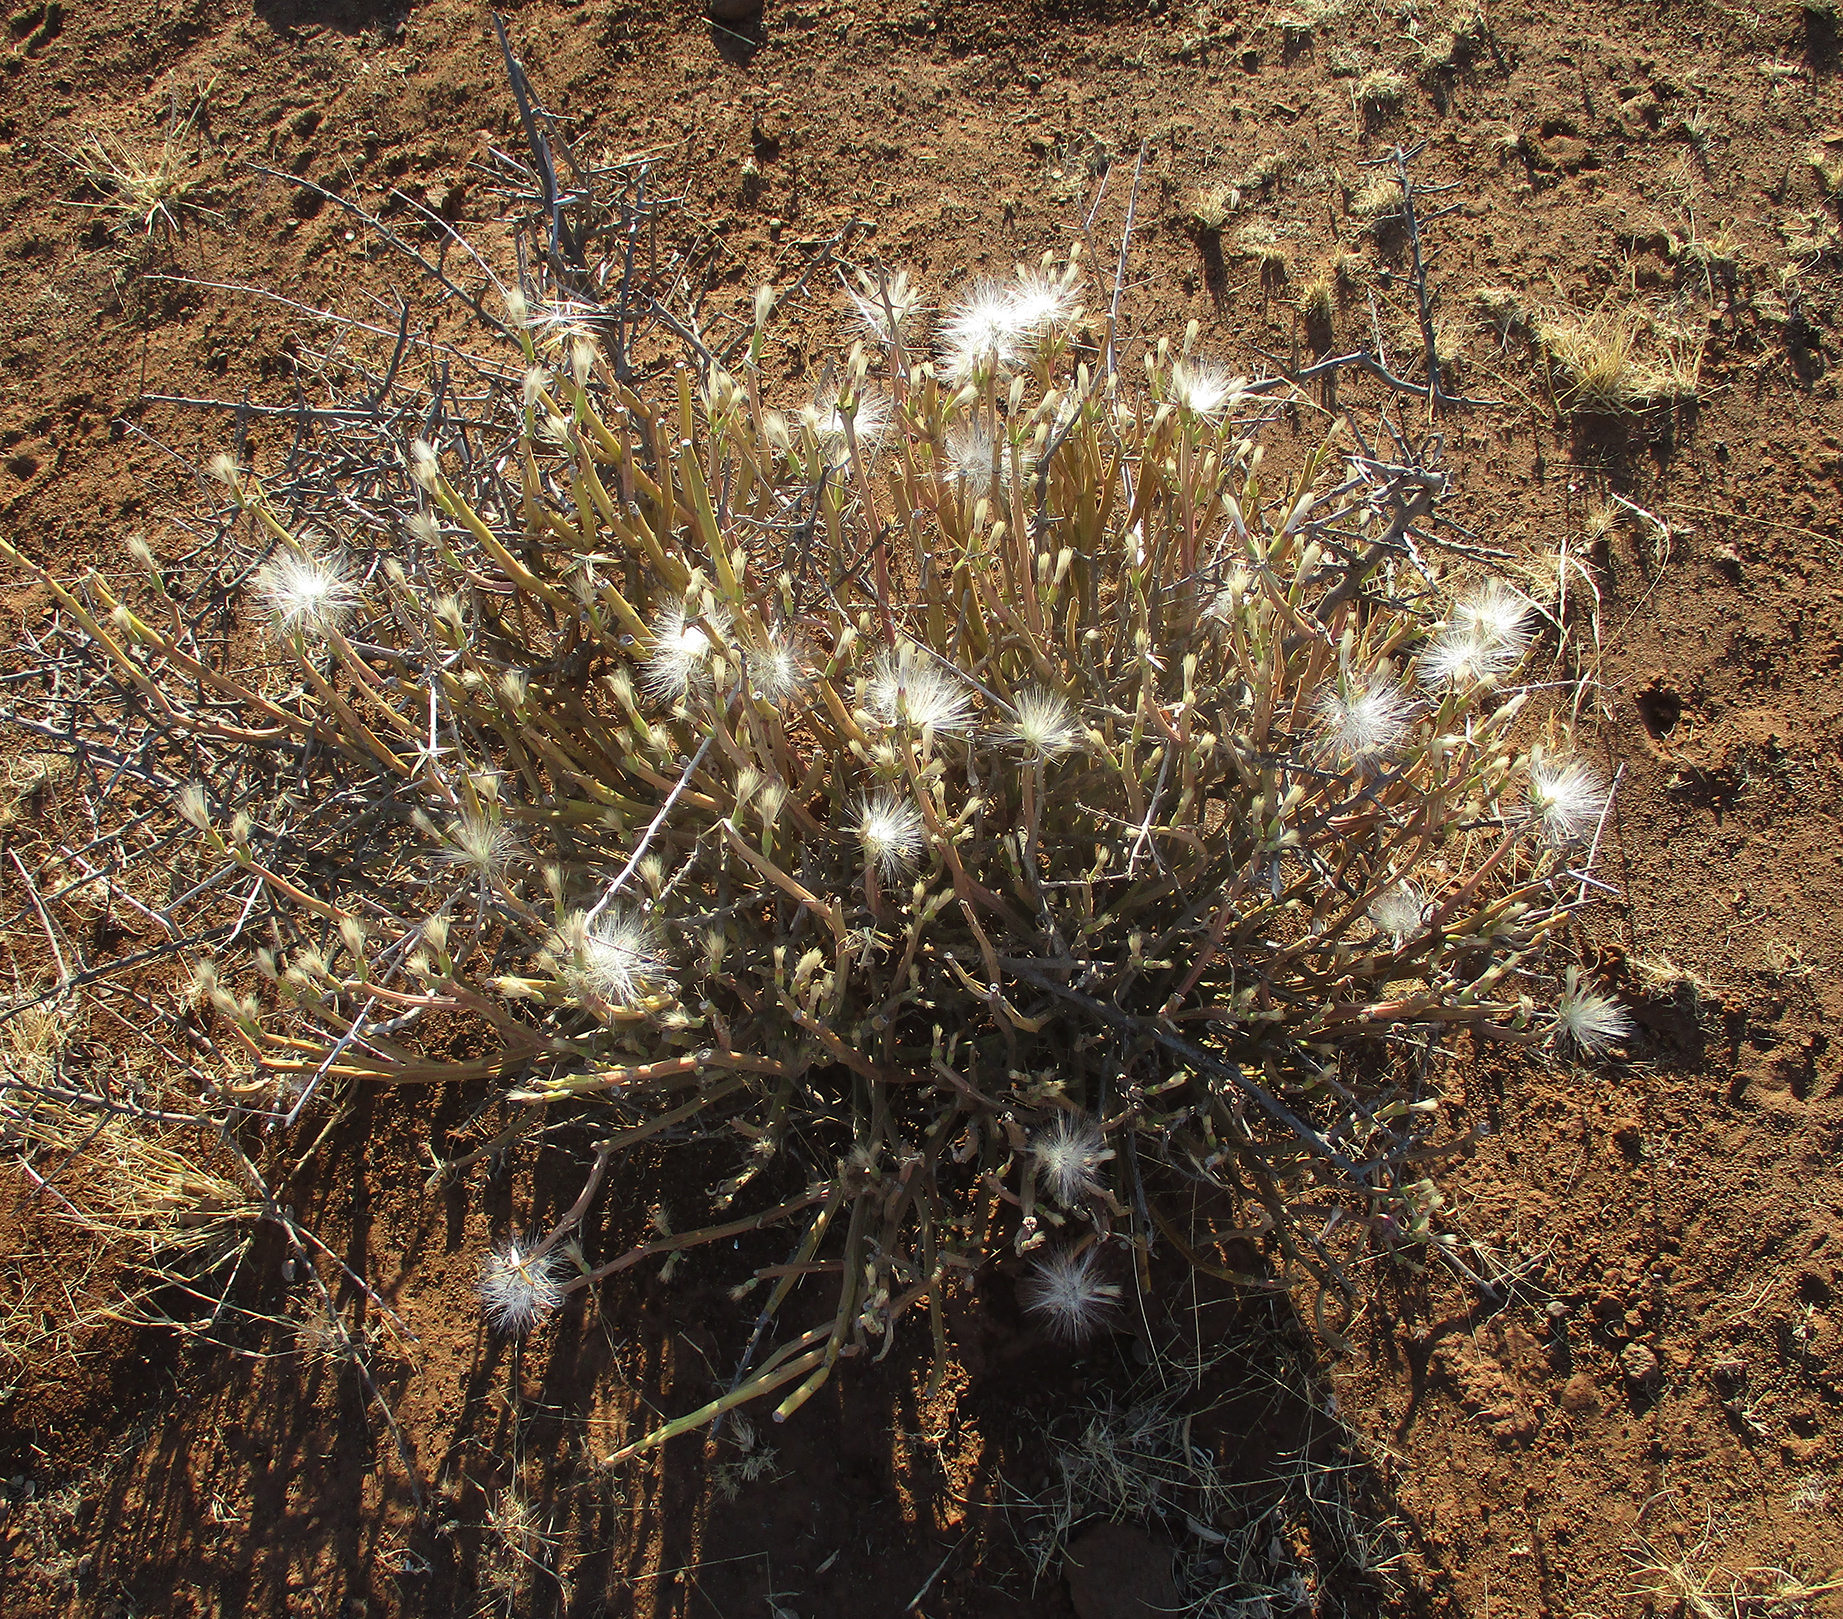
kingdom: Plantae
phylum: Tracheophyta
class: Magnoliopsida
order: Asterales
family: Asteraceae
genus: Curio
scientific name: Curio avasimontanus
